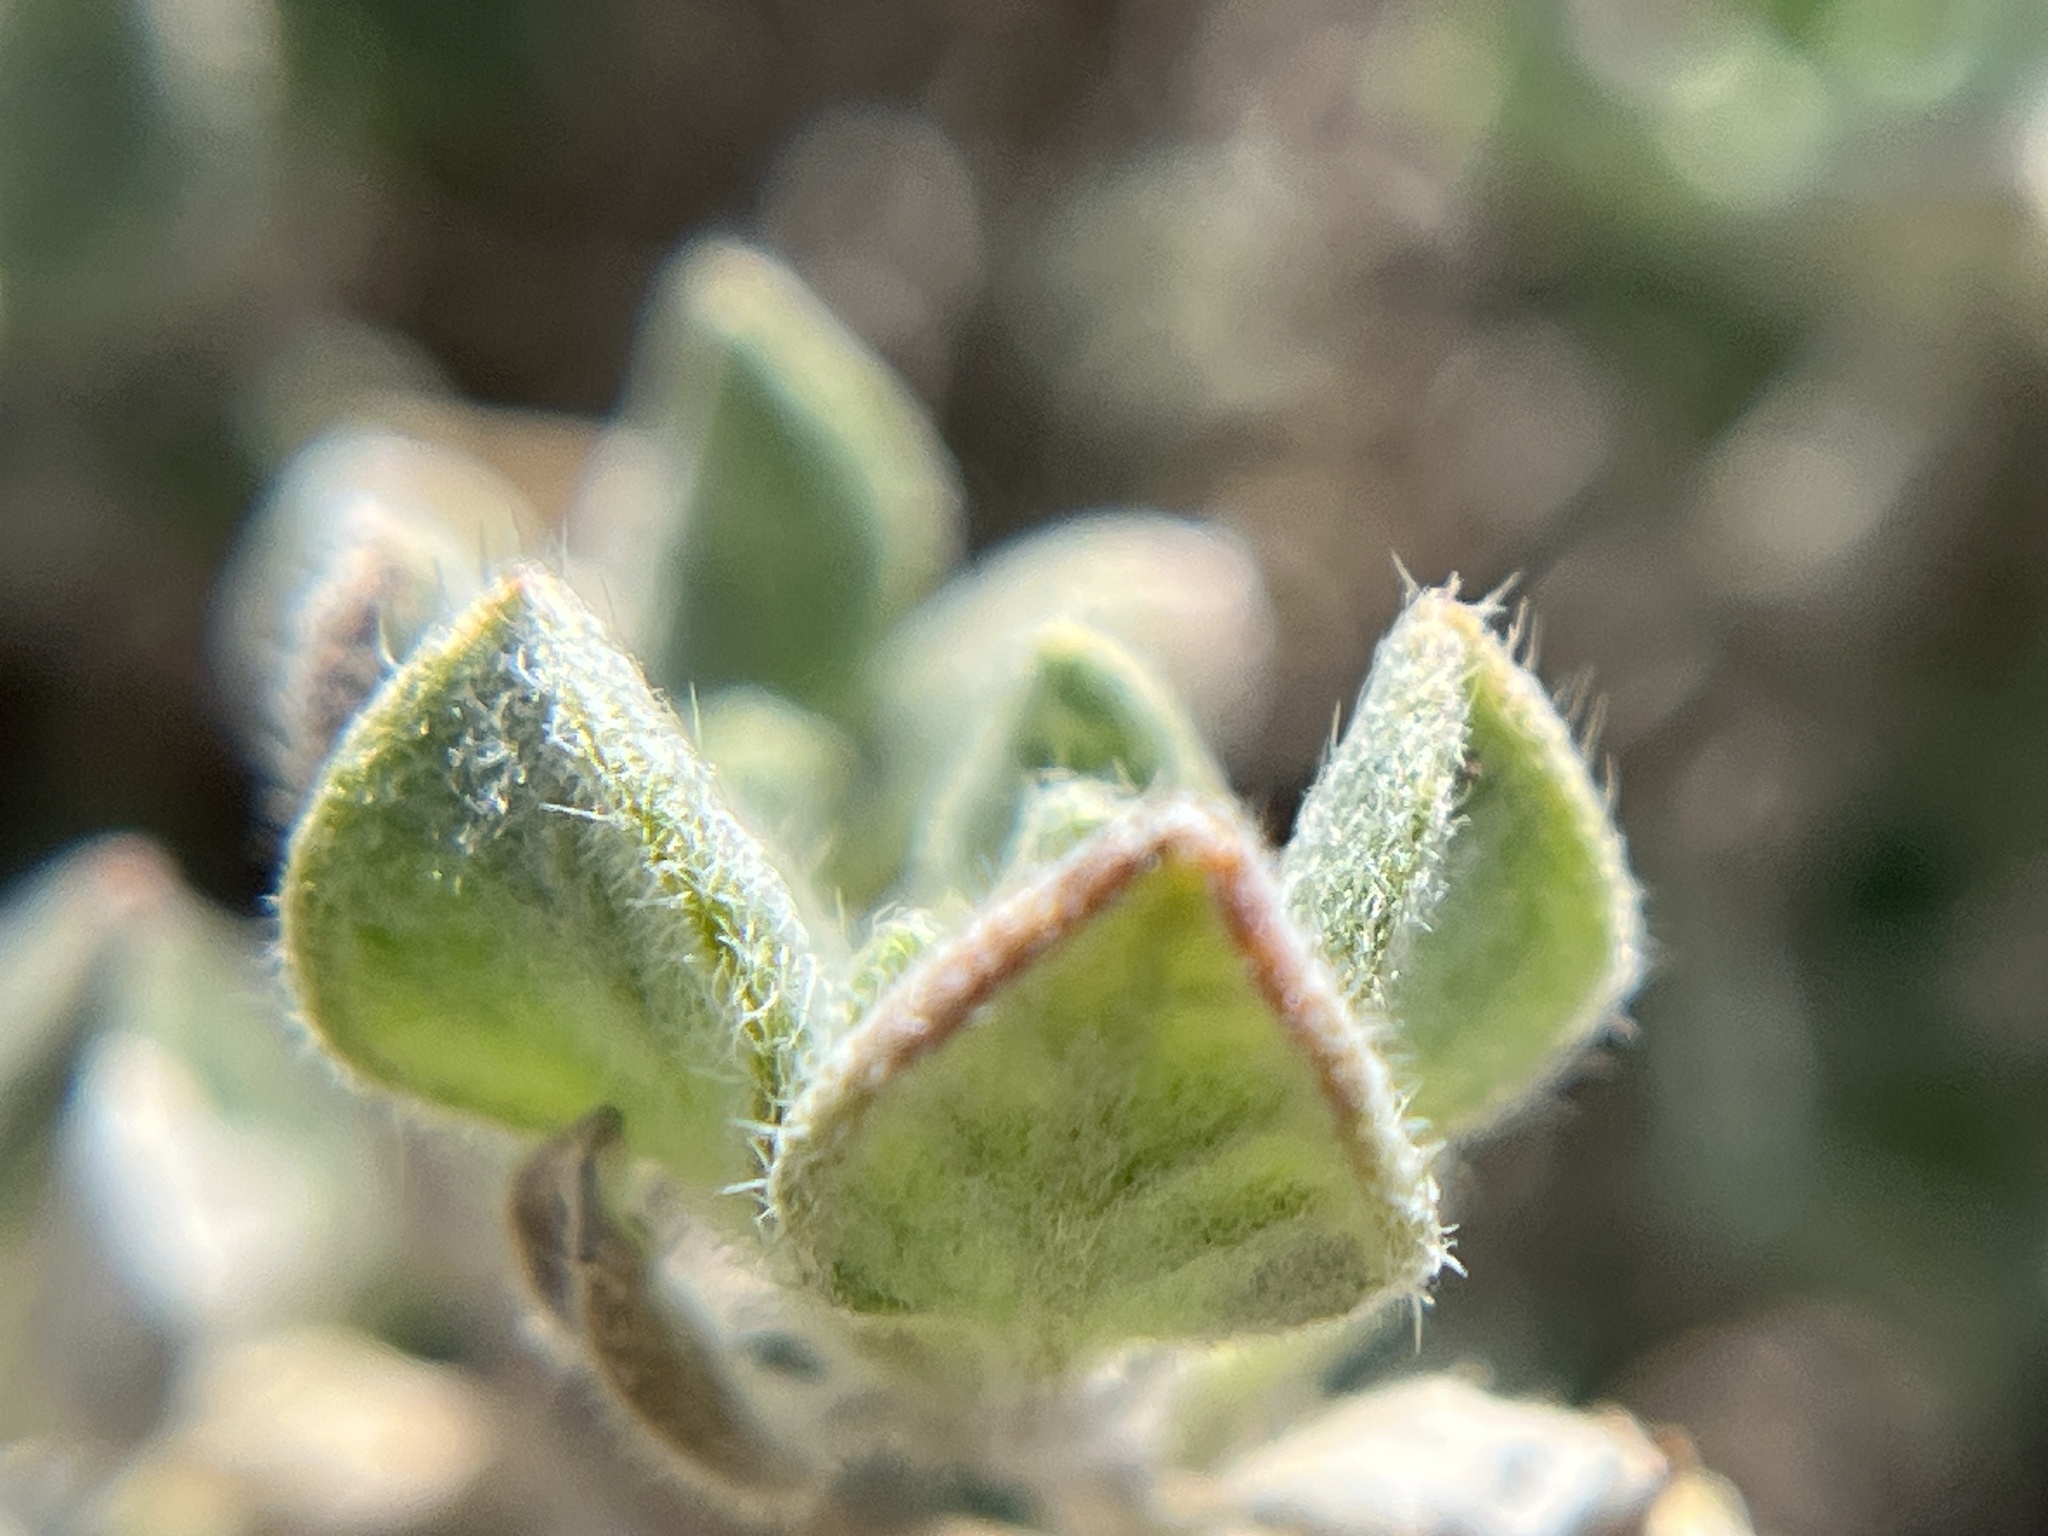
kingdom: Plantae
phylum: Tracheophyta
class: Magnoliopsida
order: Boraginales
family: Ehretiaceae
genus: Tiquilia
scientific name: Tiquilia canescens
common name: Hairy tiquilia
